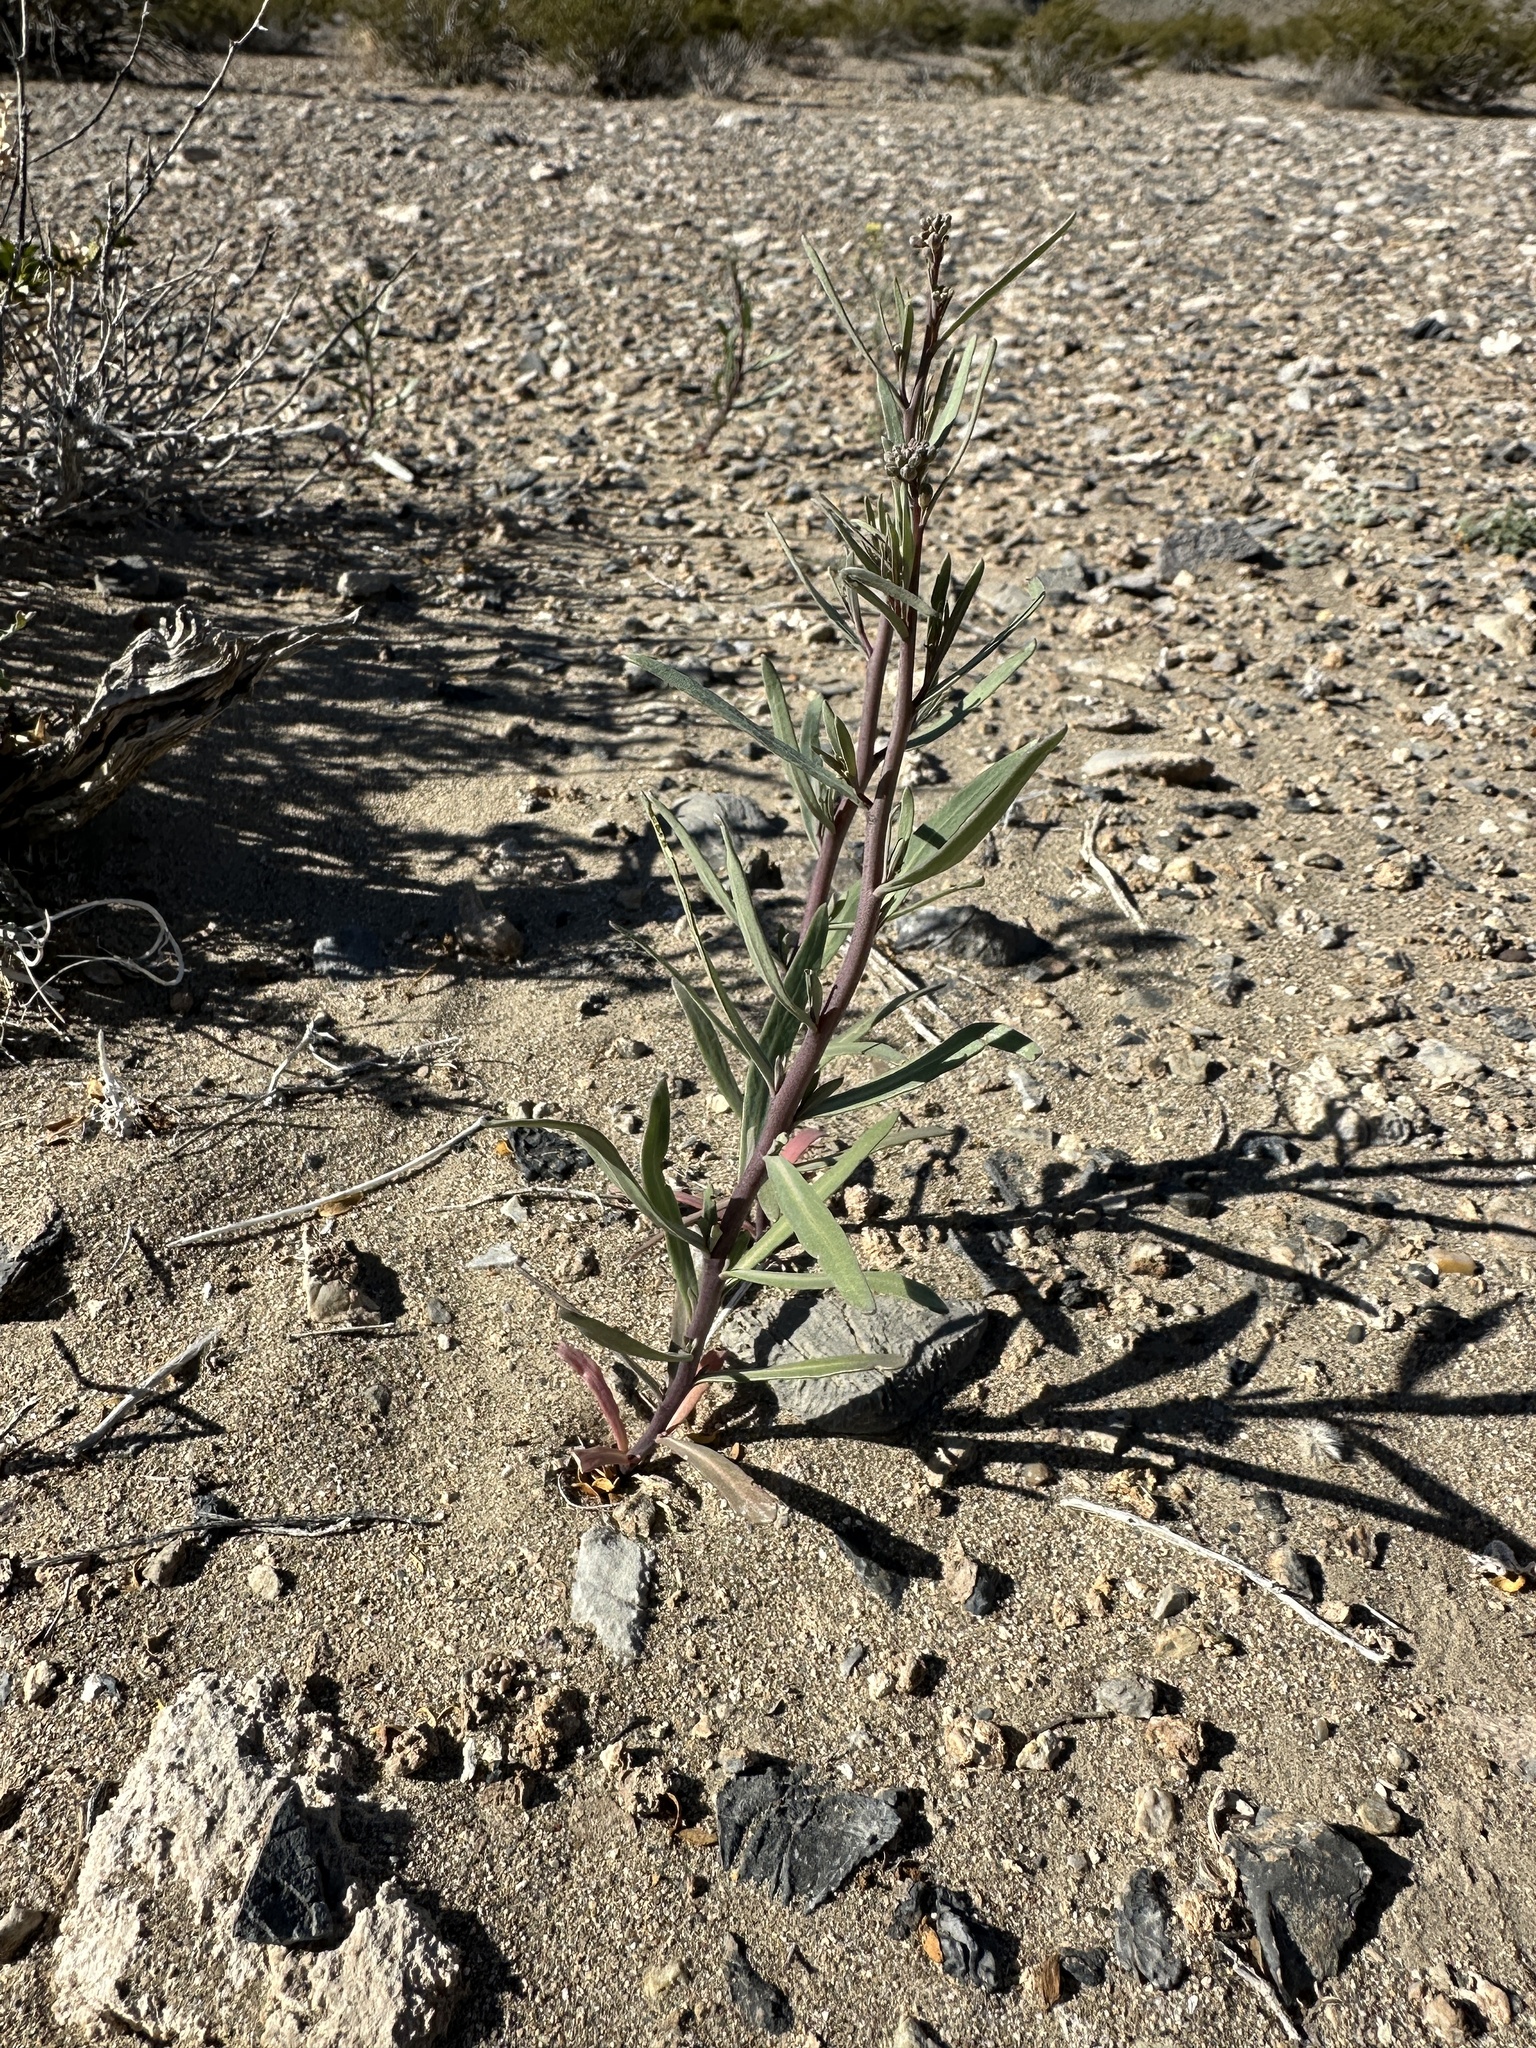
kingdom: Plantae
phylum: Tracheophyta
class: Magnoliopsida
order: Brassicales
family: Brassicaceae
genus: Streptanthus
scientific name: Streptanthus longirostris
